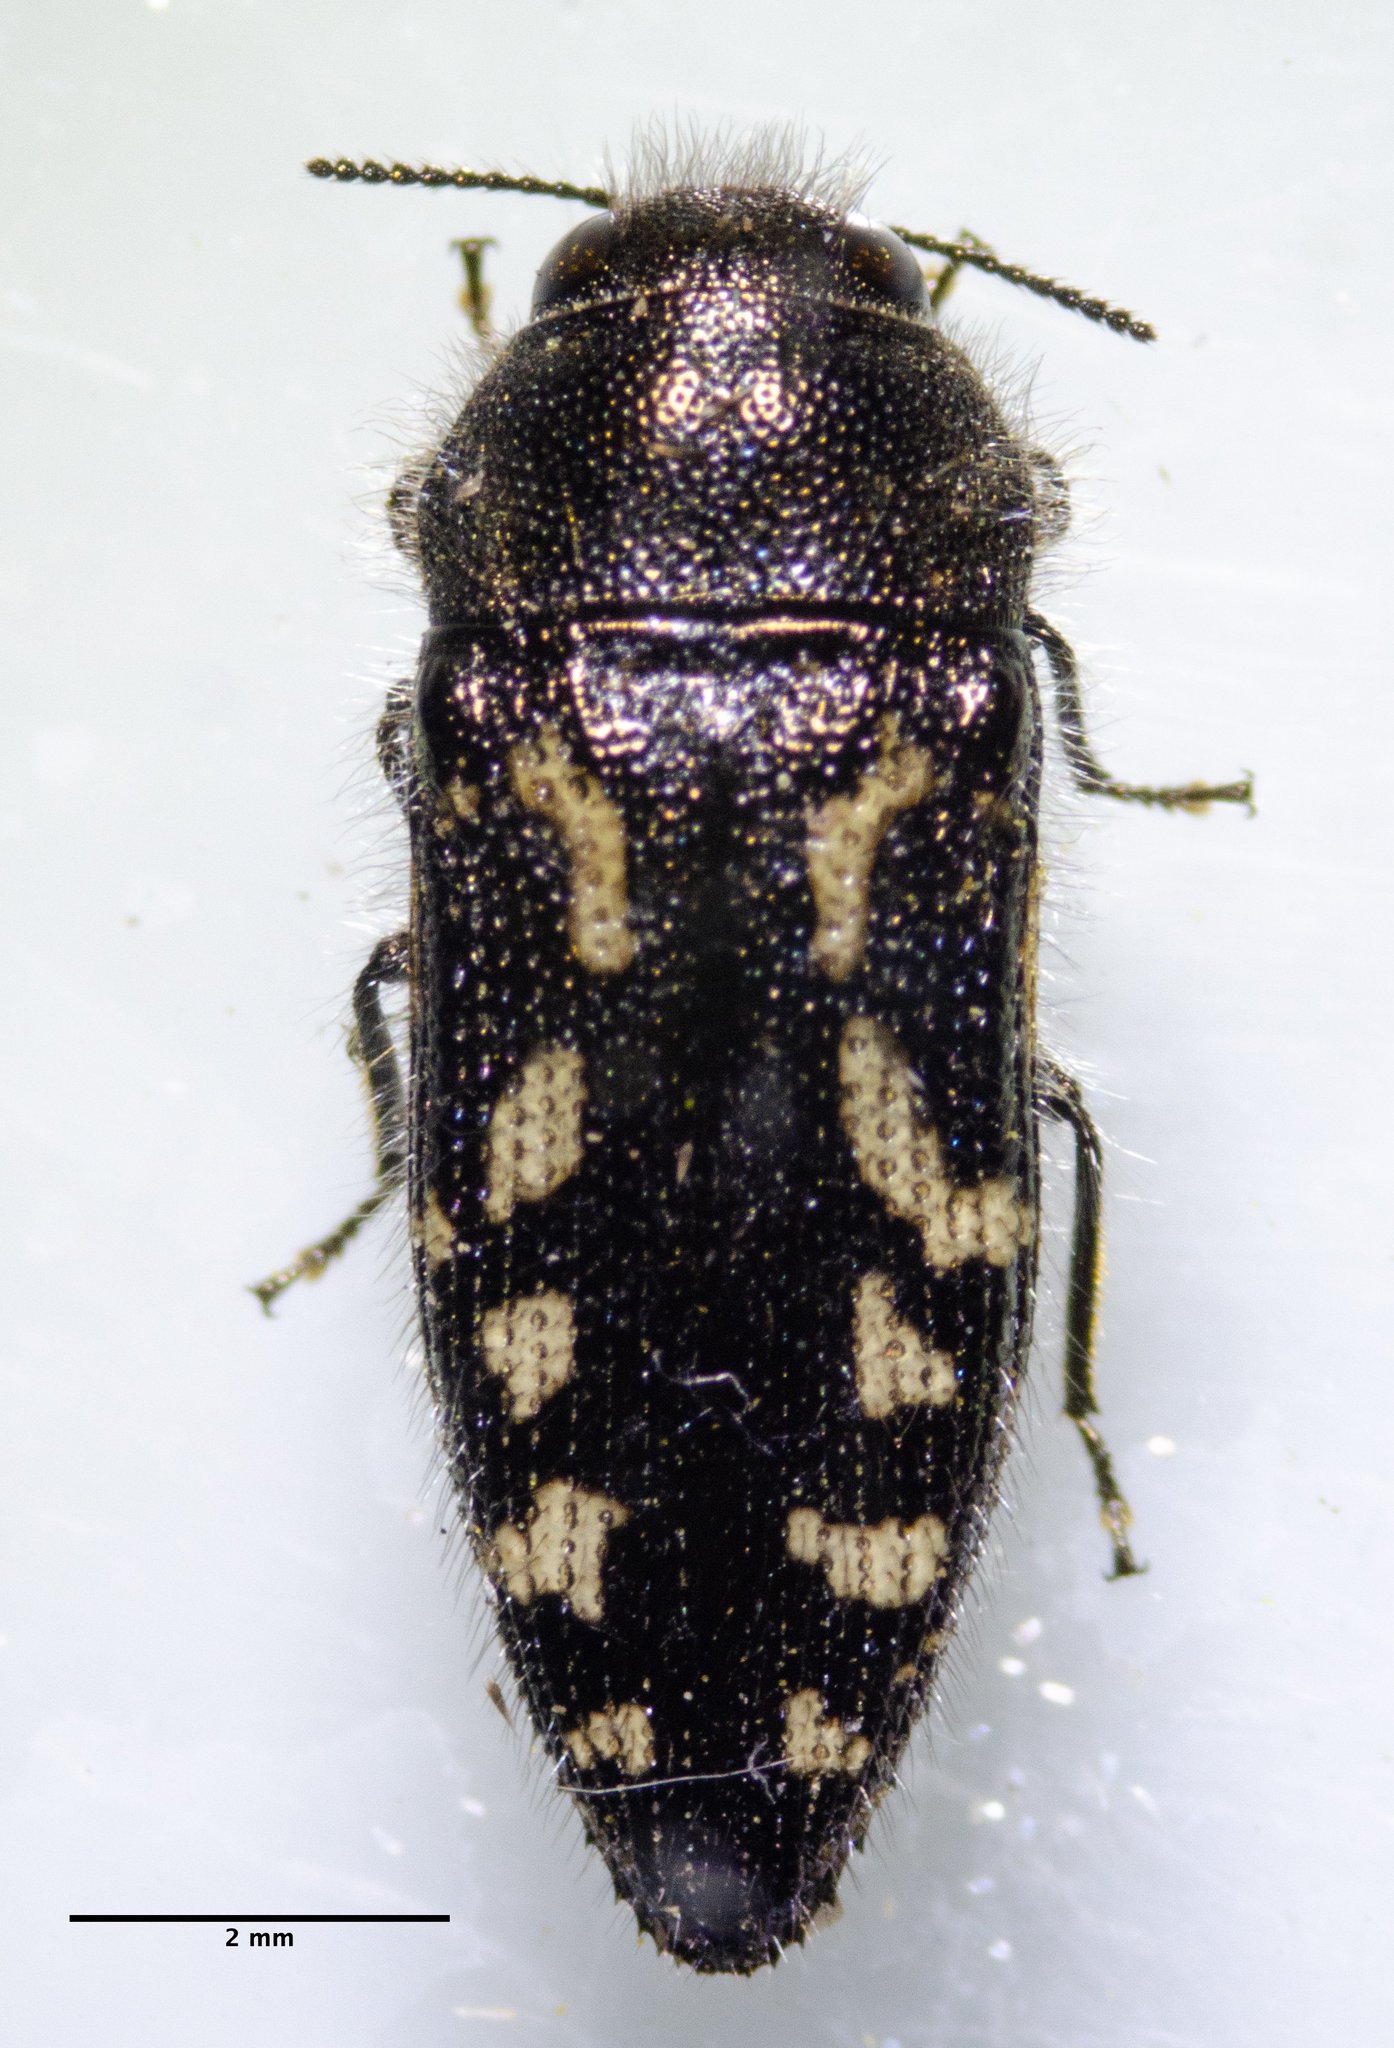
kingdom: Animalia
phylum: Arthropoda
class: Insecta
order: Coleoptera
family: Buprestidae
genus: Acmaeodera
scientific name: Acmaeodera retifera
